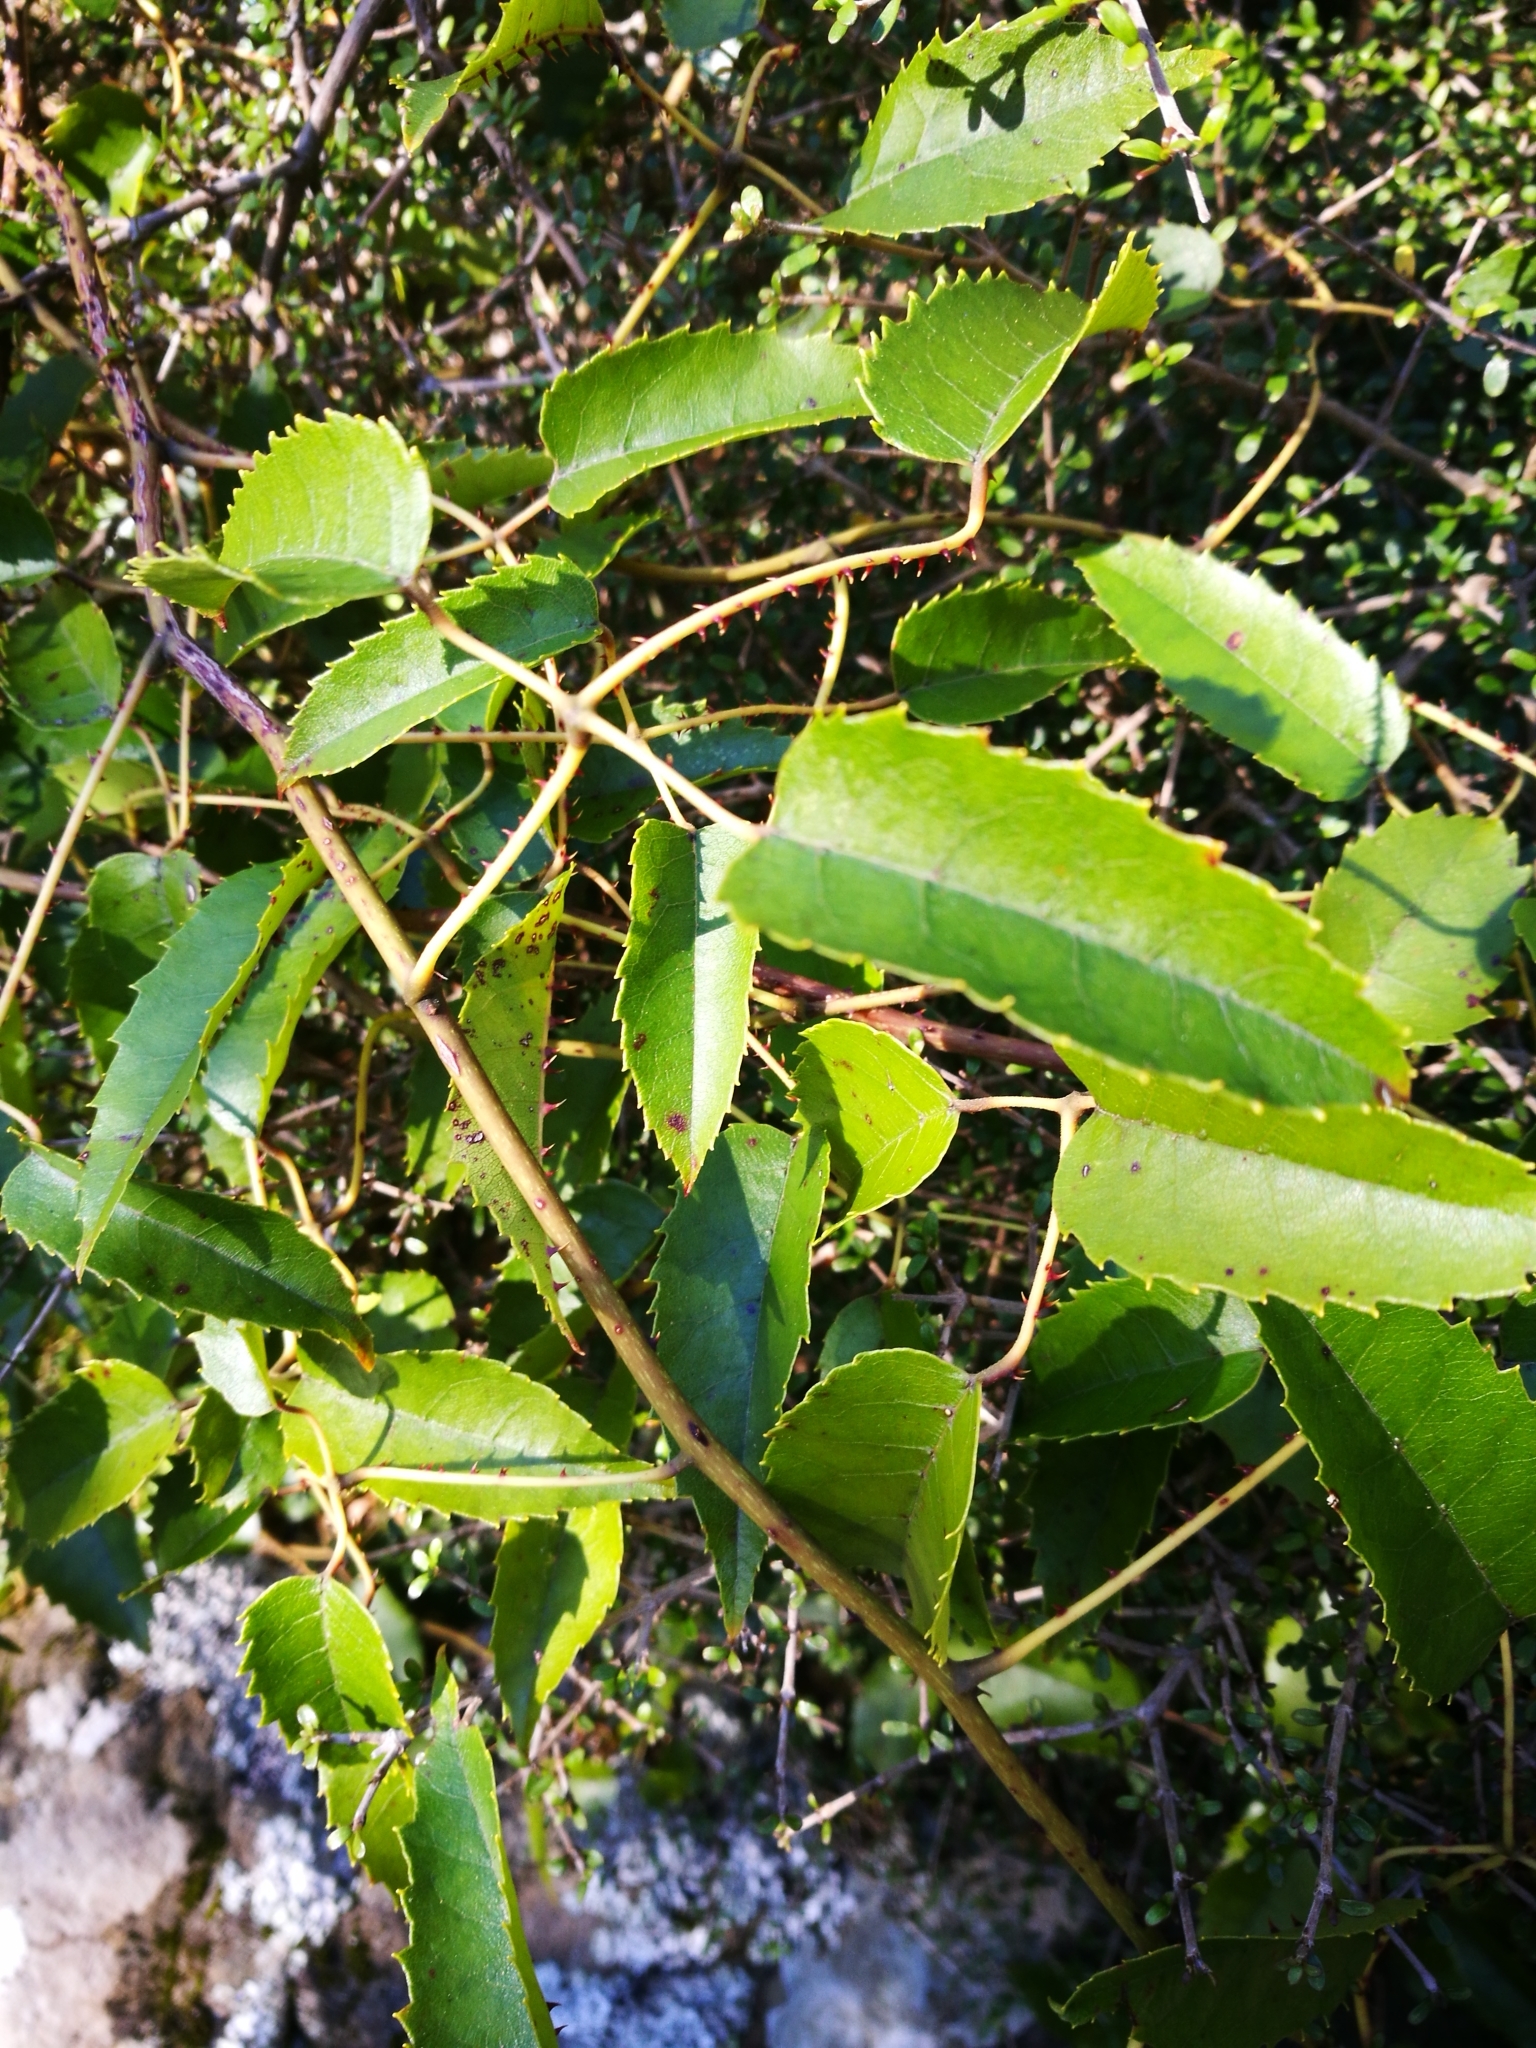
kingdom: Plantae
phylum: Tracheophyta
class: Magnoliopsida
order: Rosales
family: Rosaceae
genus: Rubus
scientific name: Rubus cissoides
